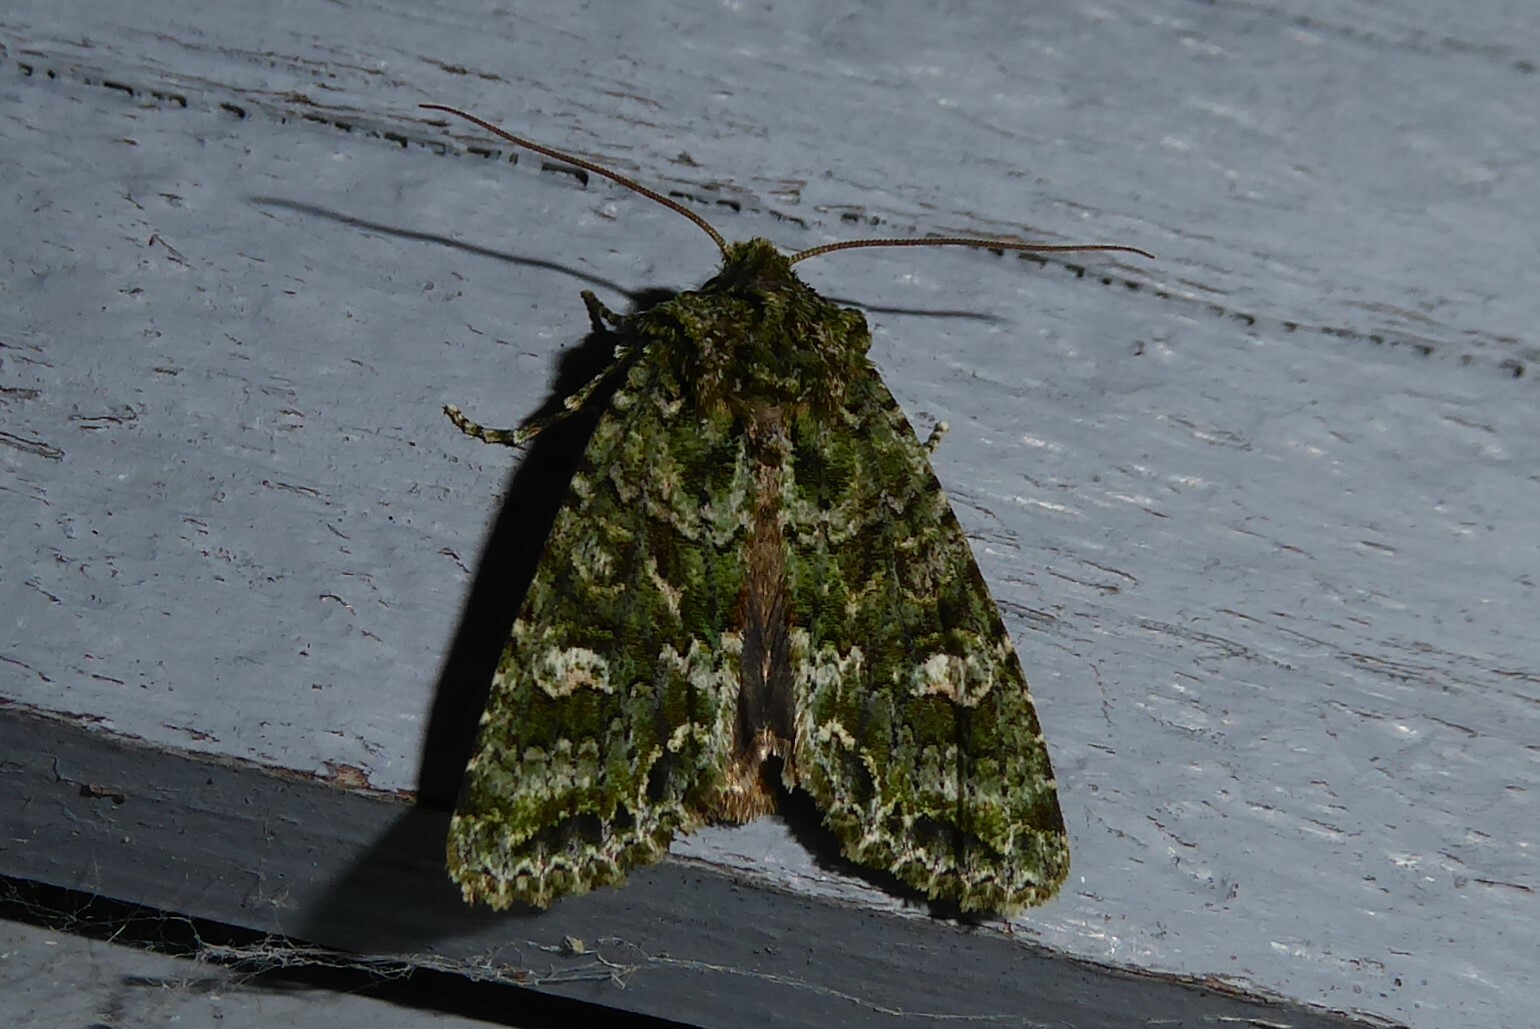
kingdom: Animalia
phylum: Arthropoda
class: Insecta
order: Lepidoptera
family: Noctuidae
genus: Ichneutica
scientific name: Ichneutica
